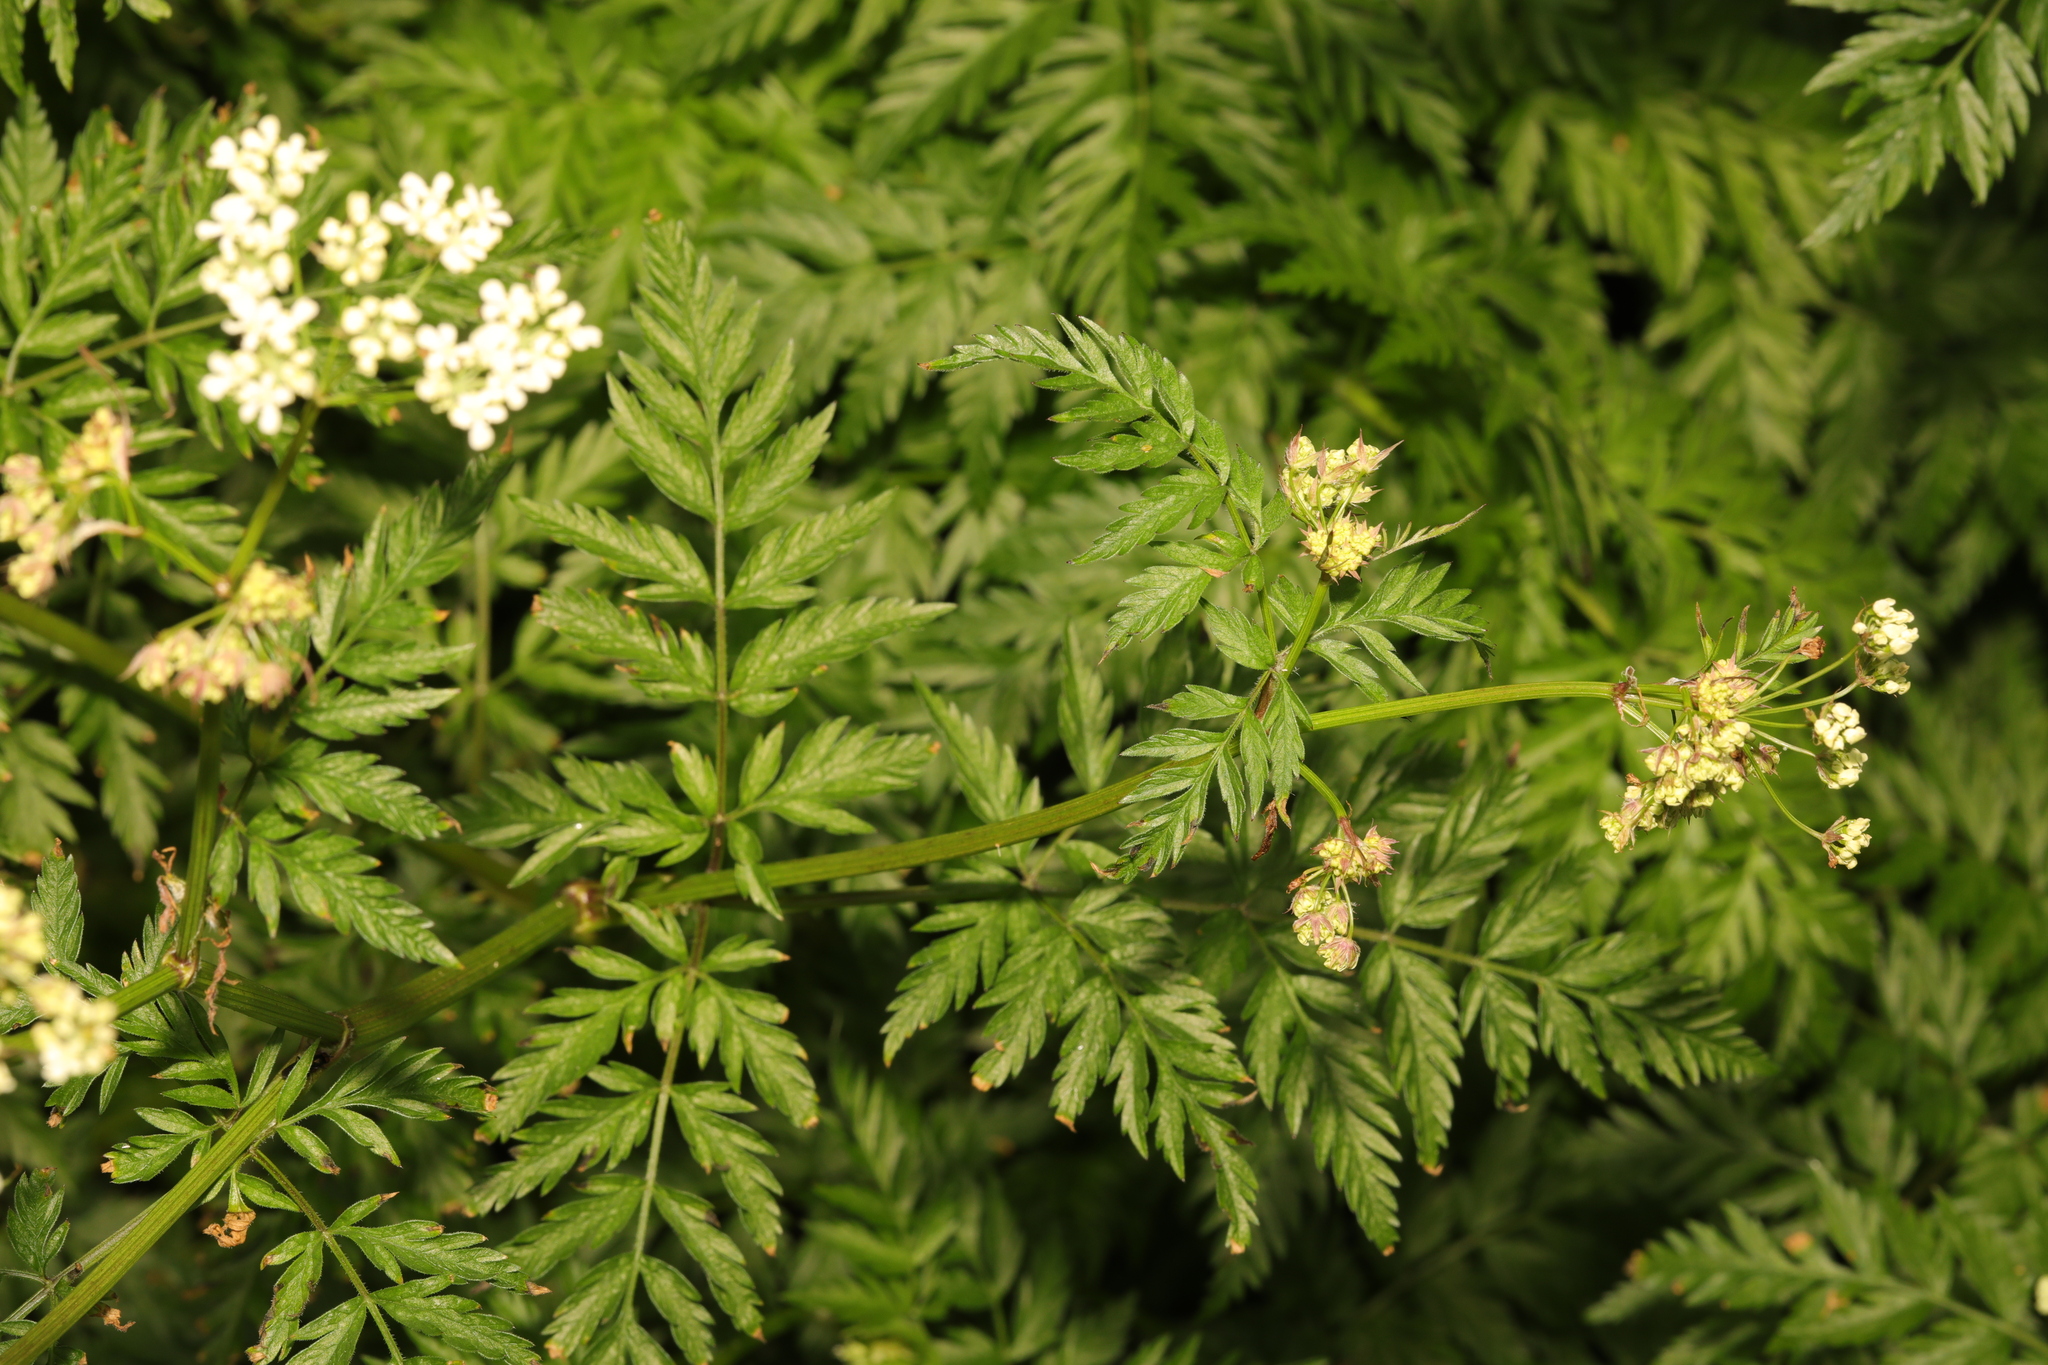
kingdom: Plantae
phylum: Tracheophyta
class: Magnoliopsida
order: Apiales
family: Apiaceae
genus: Anthriscus
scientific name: Anthriscus sylvestris
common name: Cow parsley
